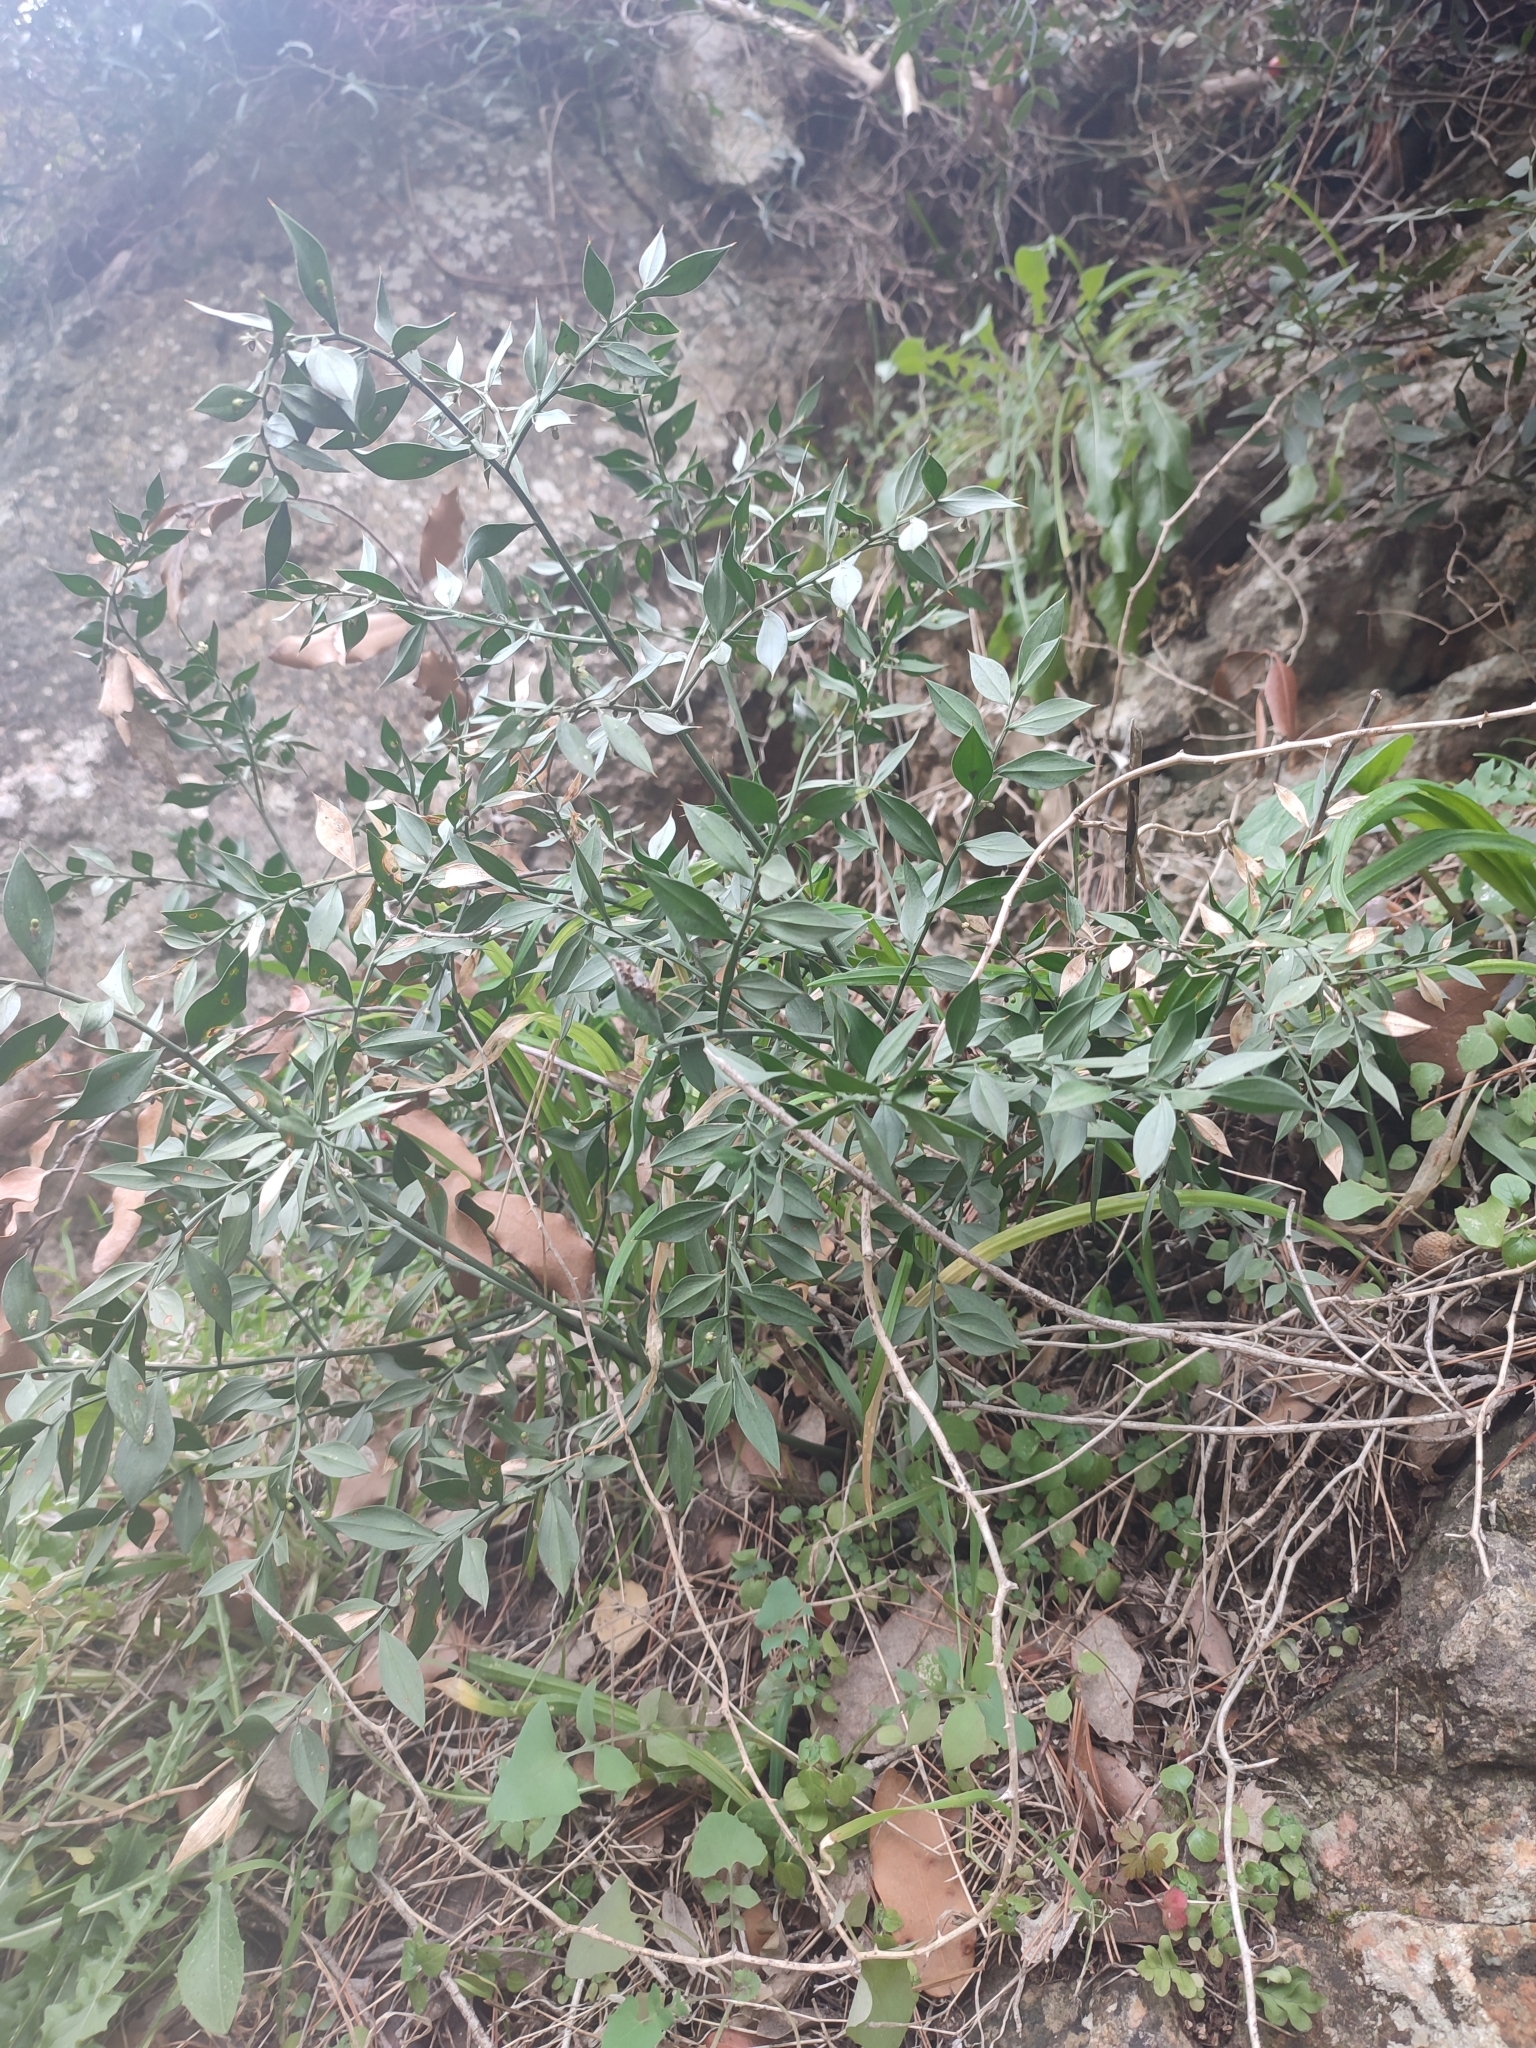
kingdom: Plantae
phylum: Tracheophyta
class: Liliopsida
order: Asparagales
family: Asparagaceae
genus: Ruscus
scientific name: Ruscus aculeatus
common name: Butcher's-broom
